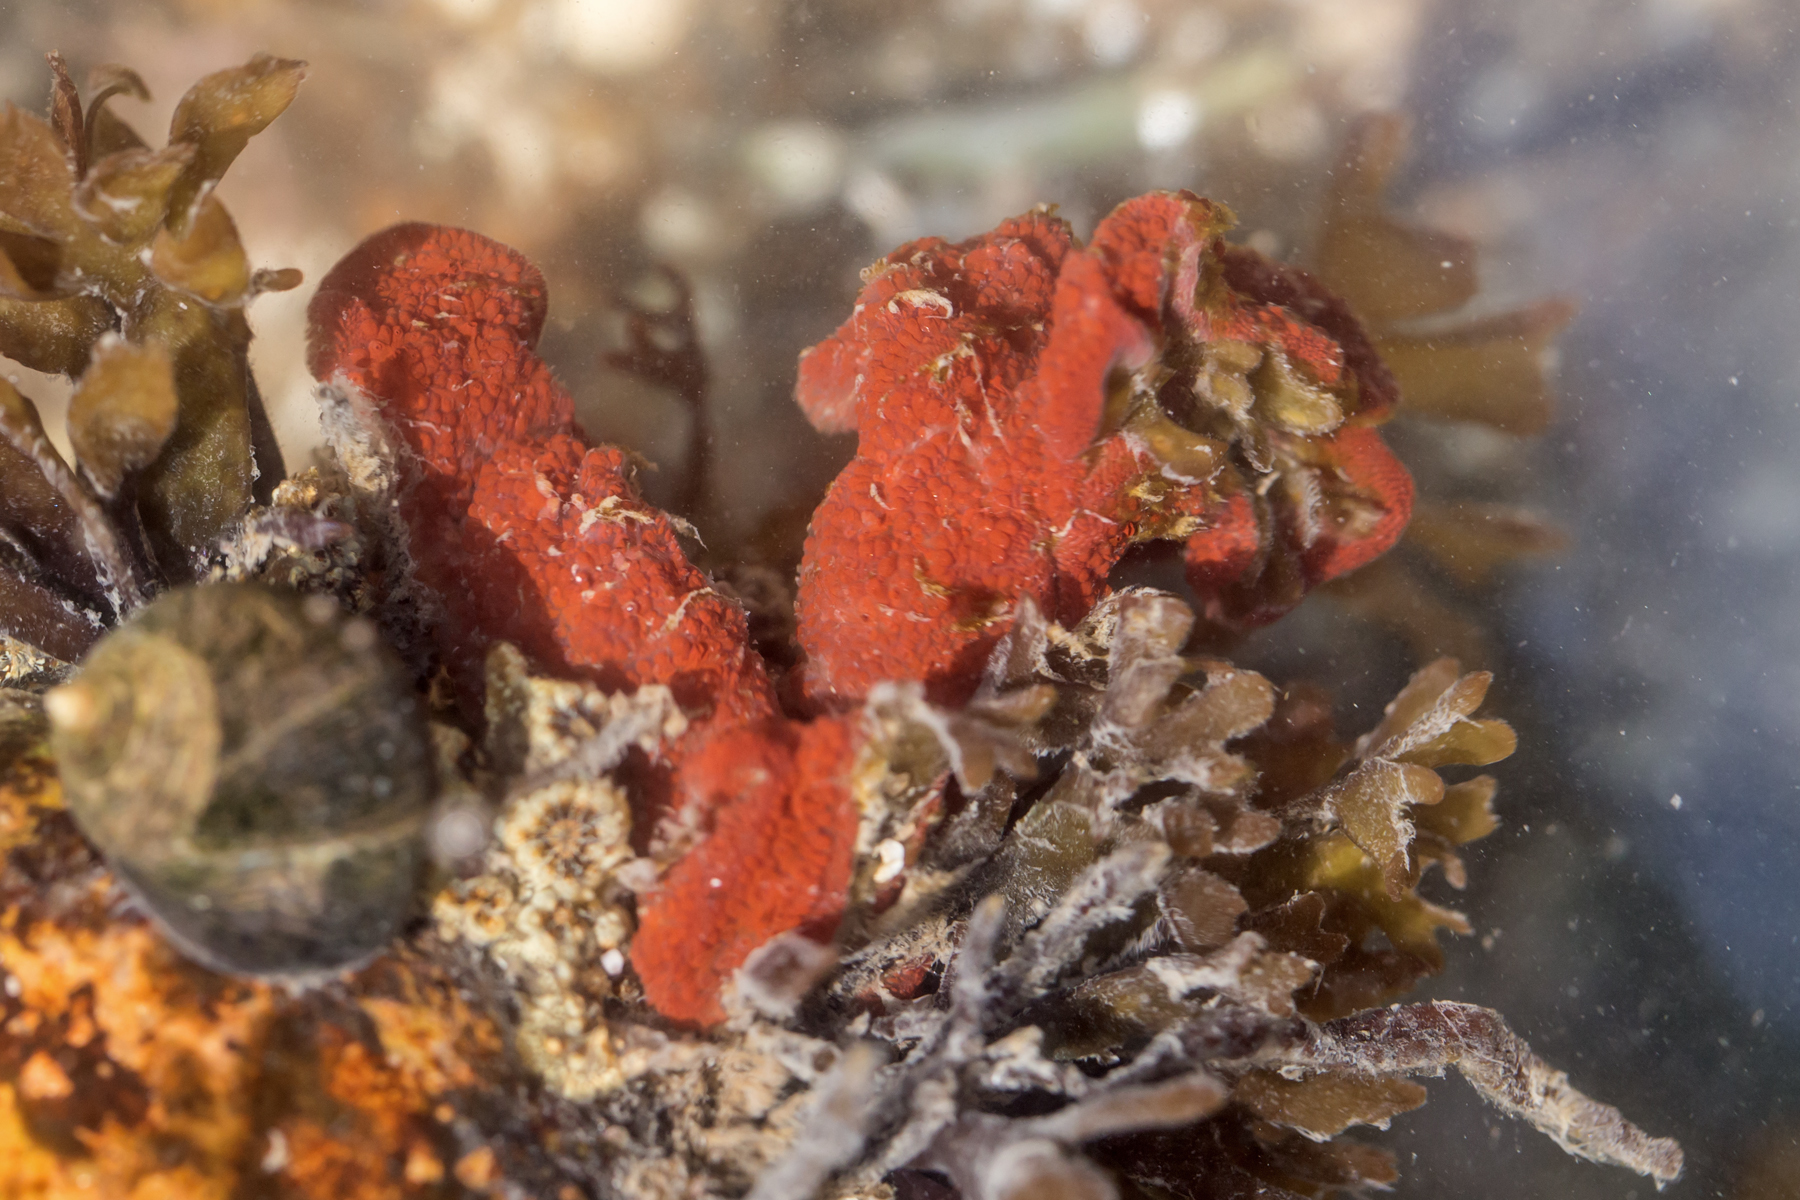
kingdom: Animalia
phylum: Chordata
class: Ascidiacea
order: Stolidobranchia
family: Styelidae
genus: Botrylloides
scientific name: Botrylloides violaceus
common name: Colonial sea squirt
